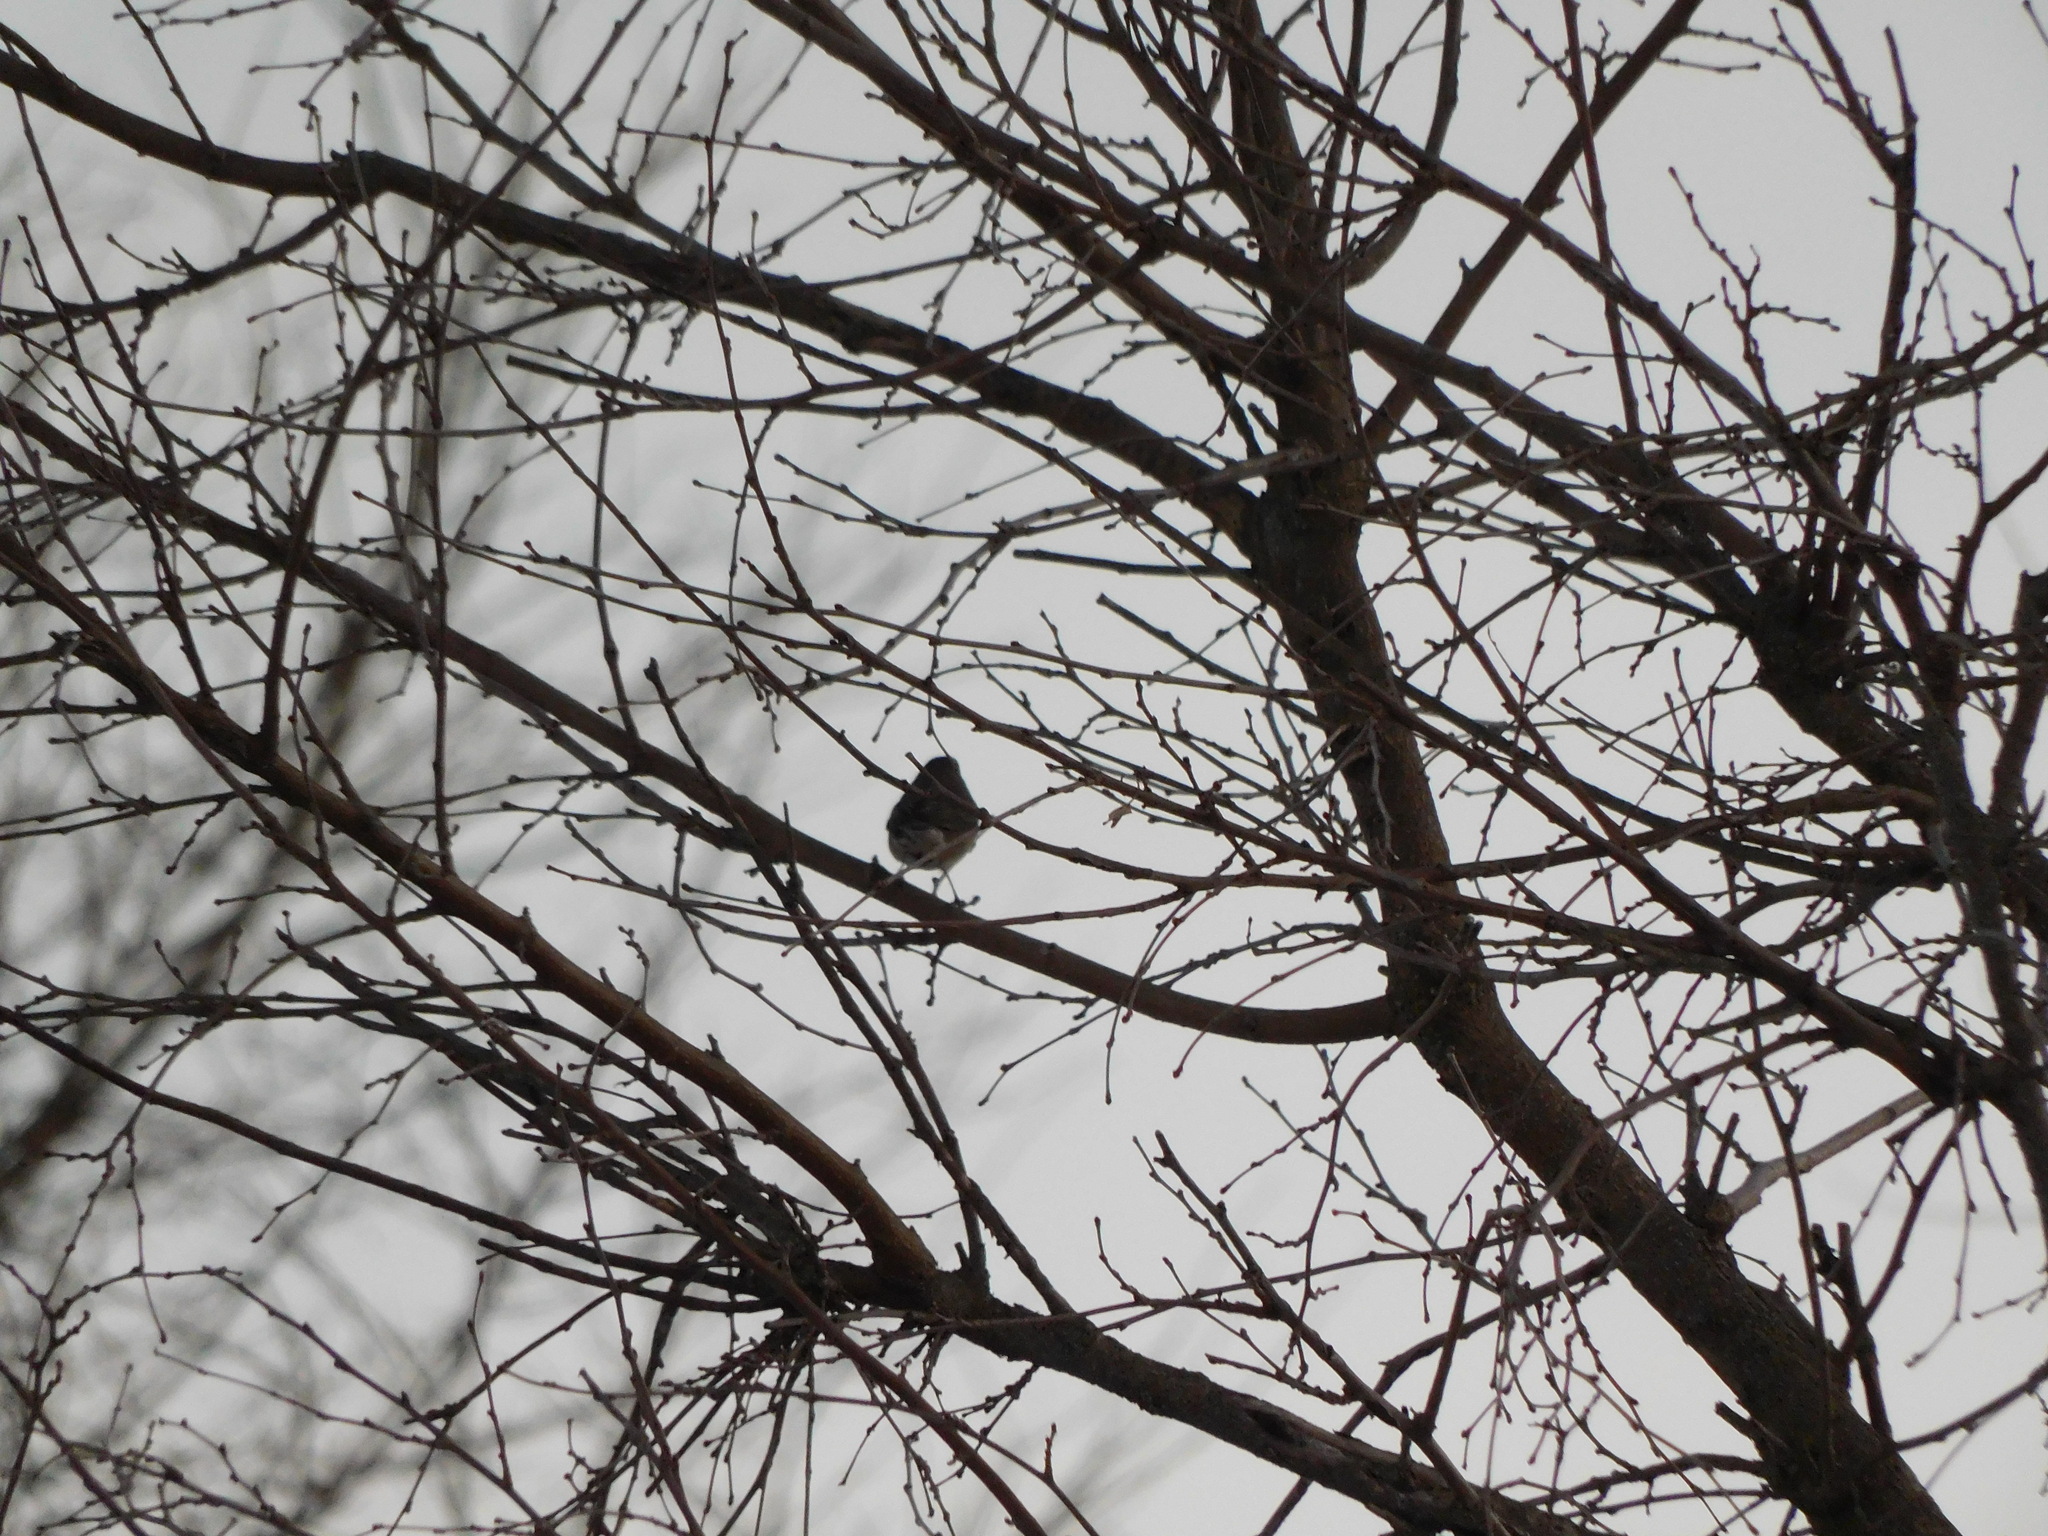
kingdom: Animalia
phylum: Chordata
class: Aves
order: Passeriformes
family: Passerellidae
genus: Junco
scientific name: Junco hyemalis
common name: Dark-eyed junco
